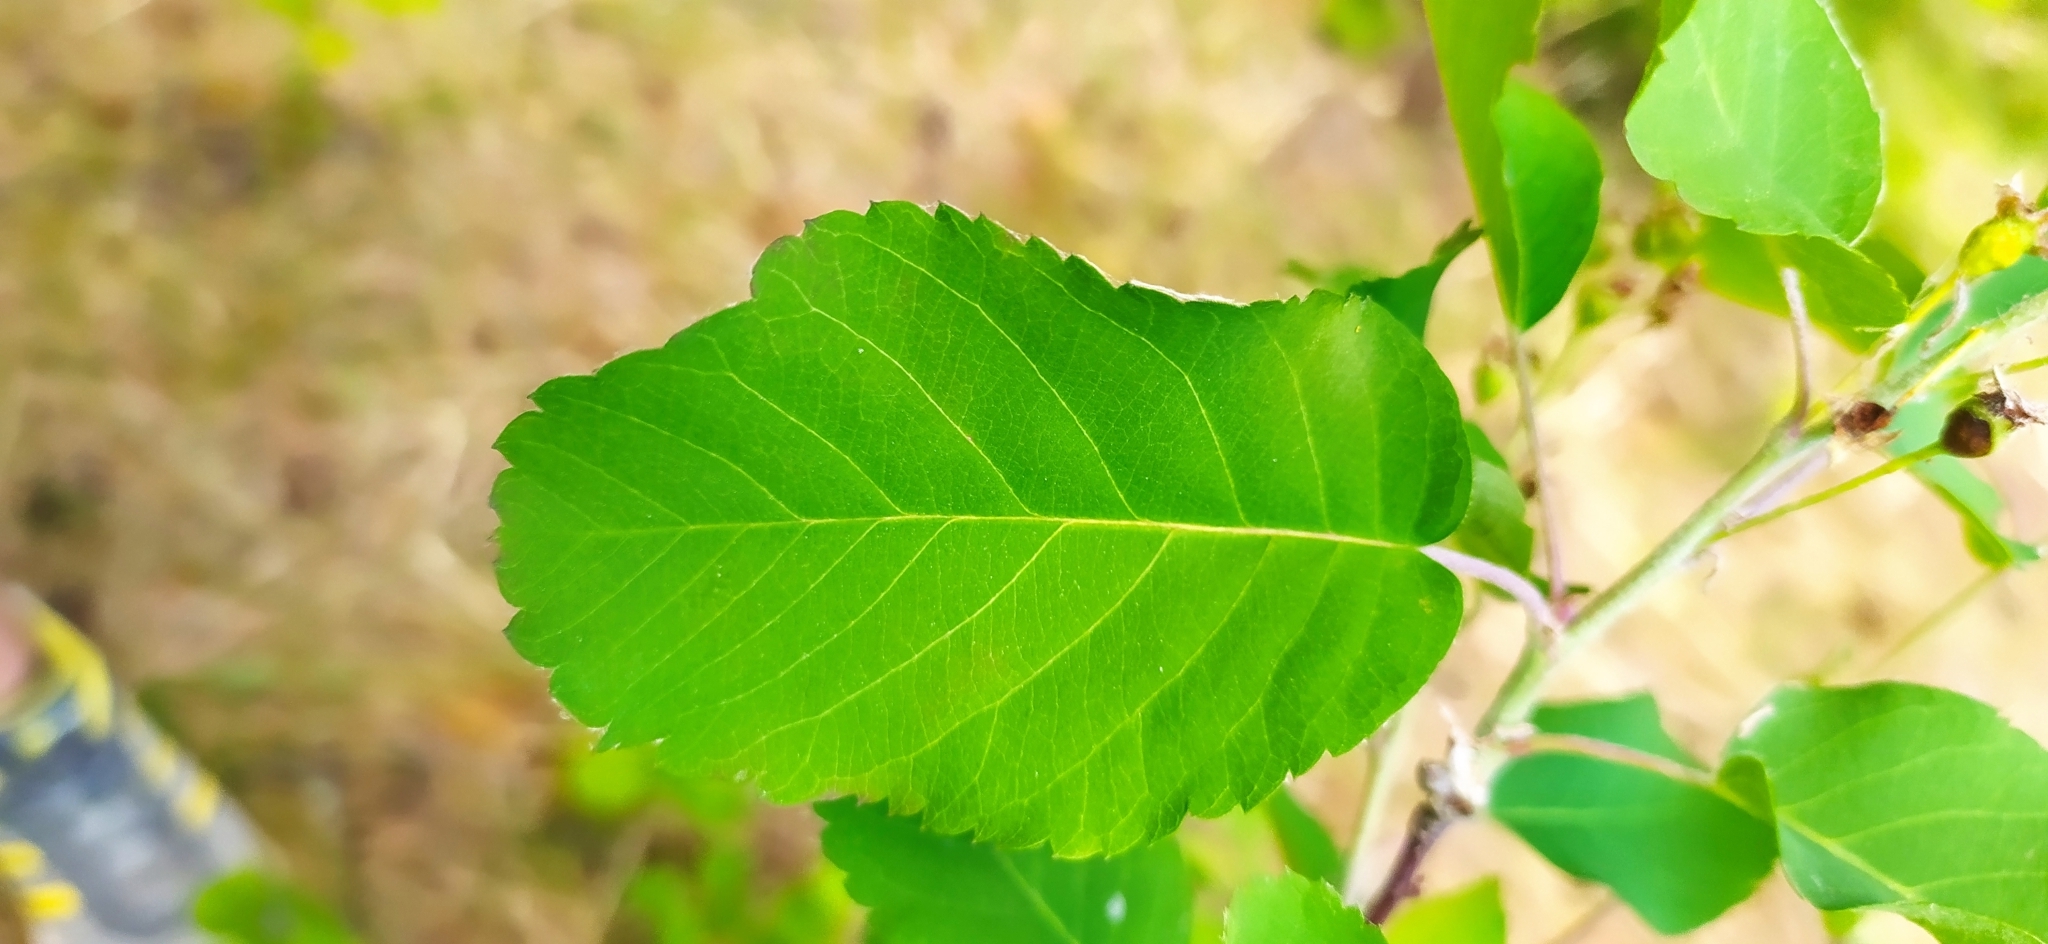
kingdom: Plantae
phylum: Tracheophyta
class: Magnoliopsida
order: Rosales
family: Rosaceae
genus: Amelanchier
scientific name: Amelanchier alnifolia
